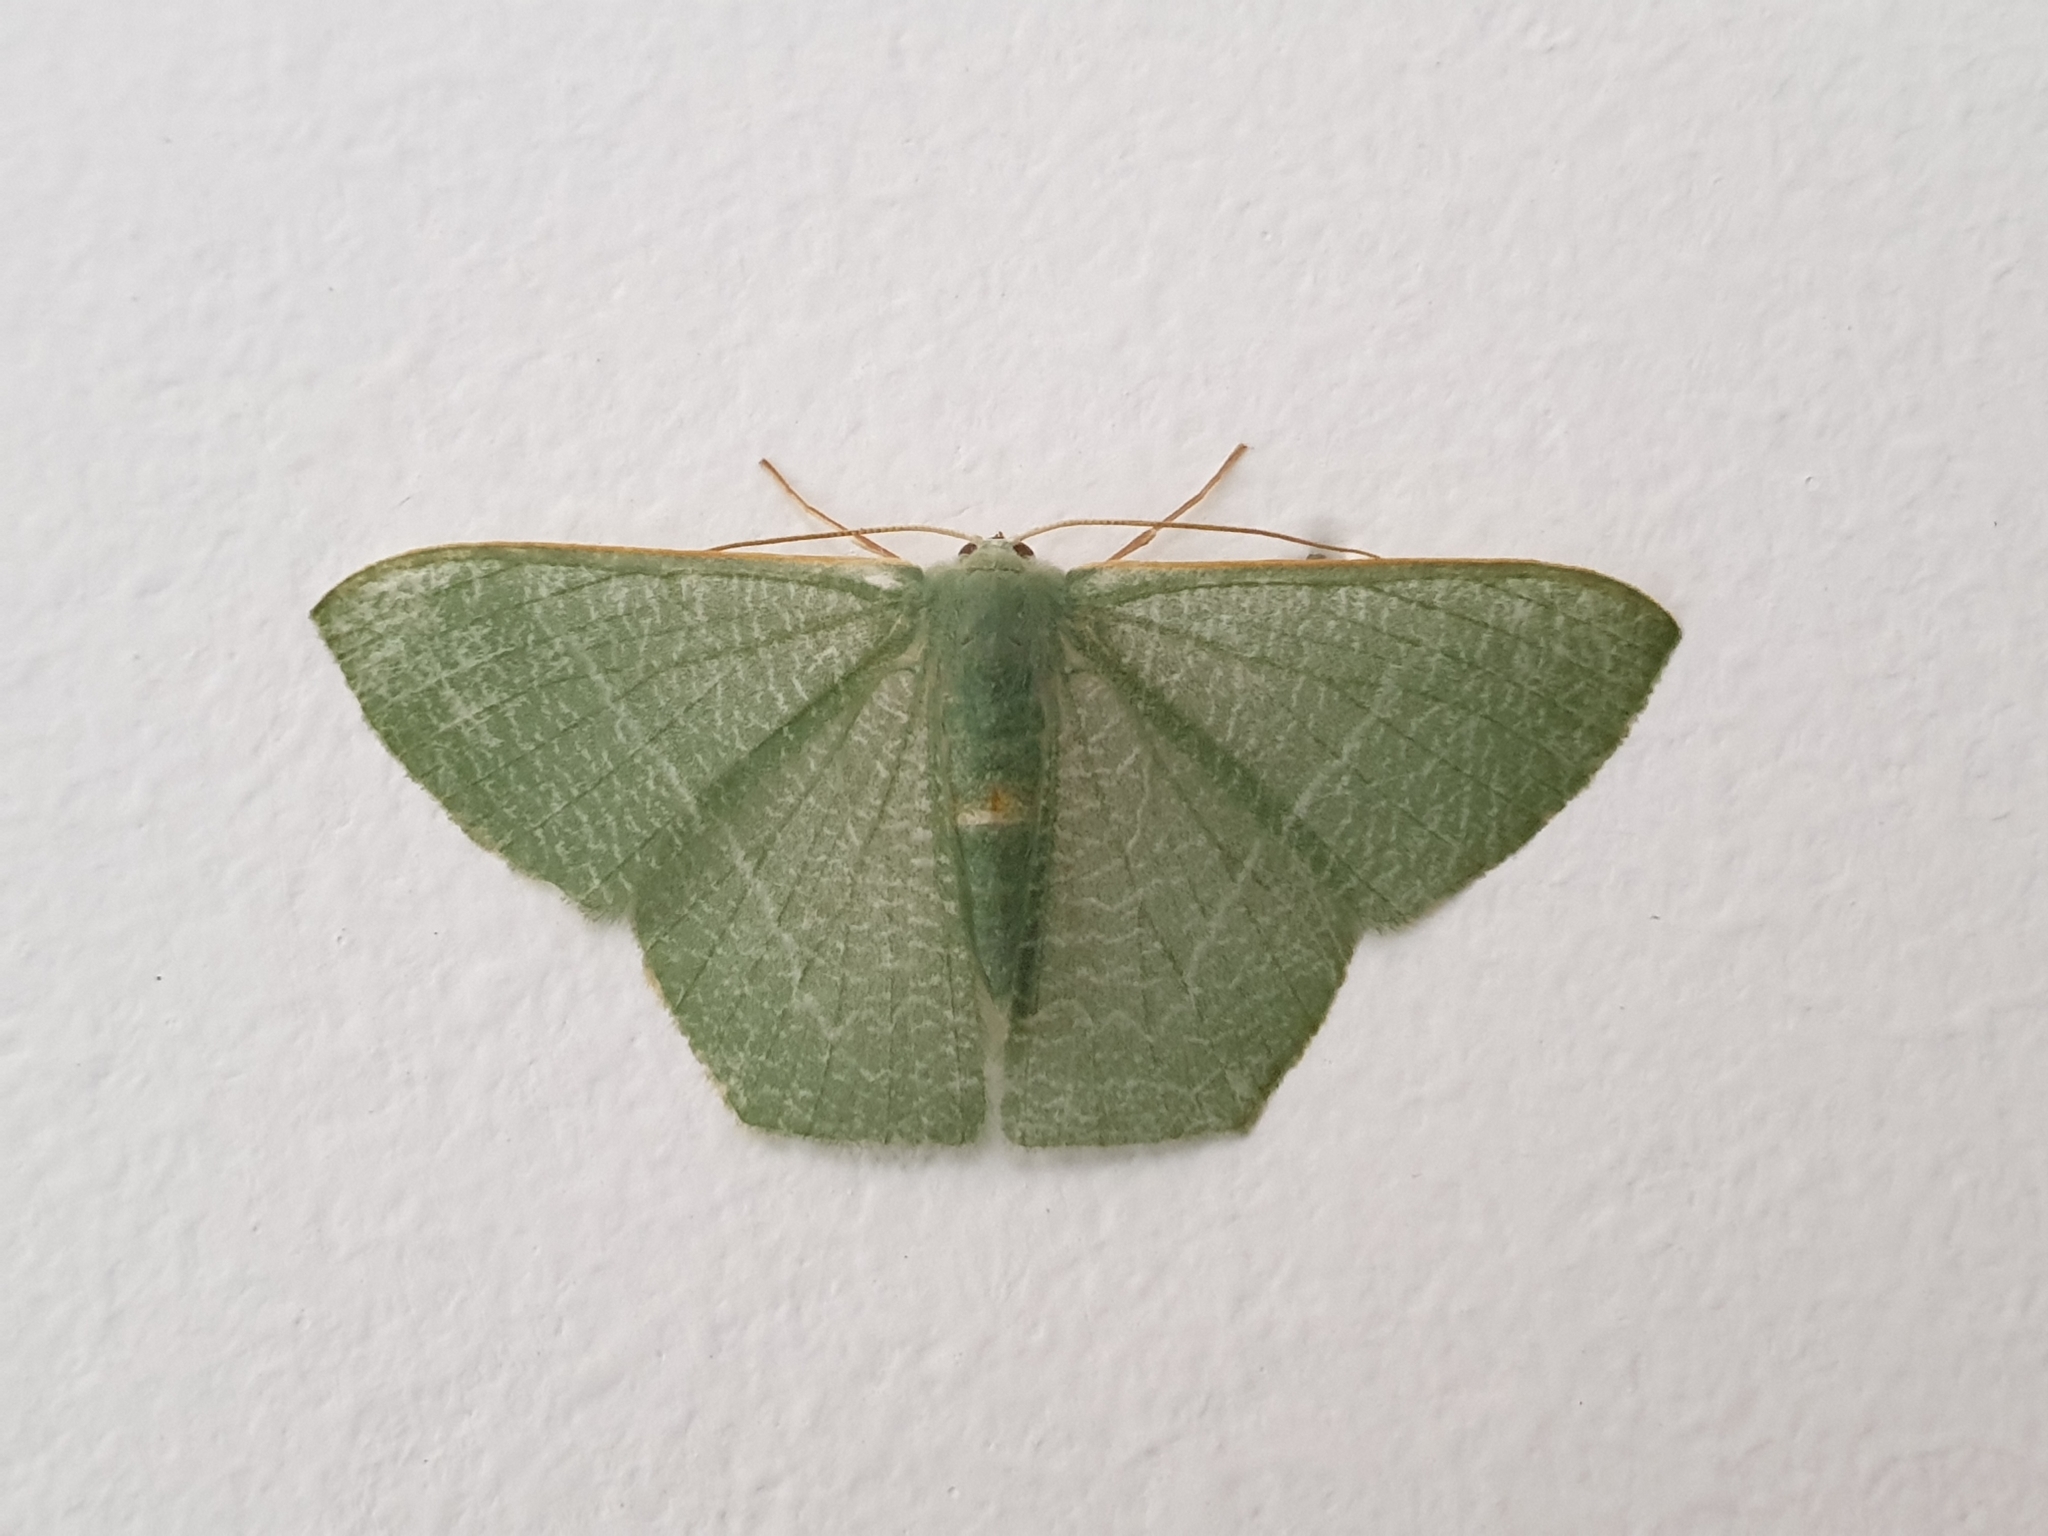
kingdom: Animalia
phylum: Arthropoda
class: Insecta
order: Lepidoptera
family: Geometridae
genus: Pelagodes
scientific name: Pelagodes antiquadraria
